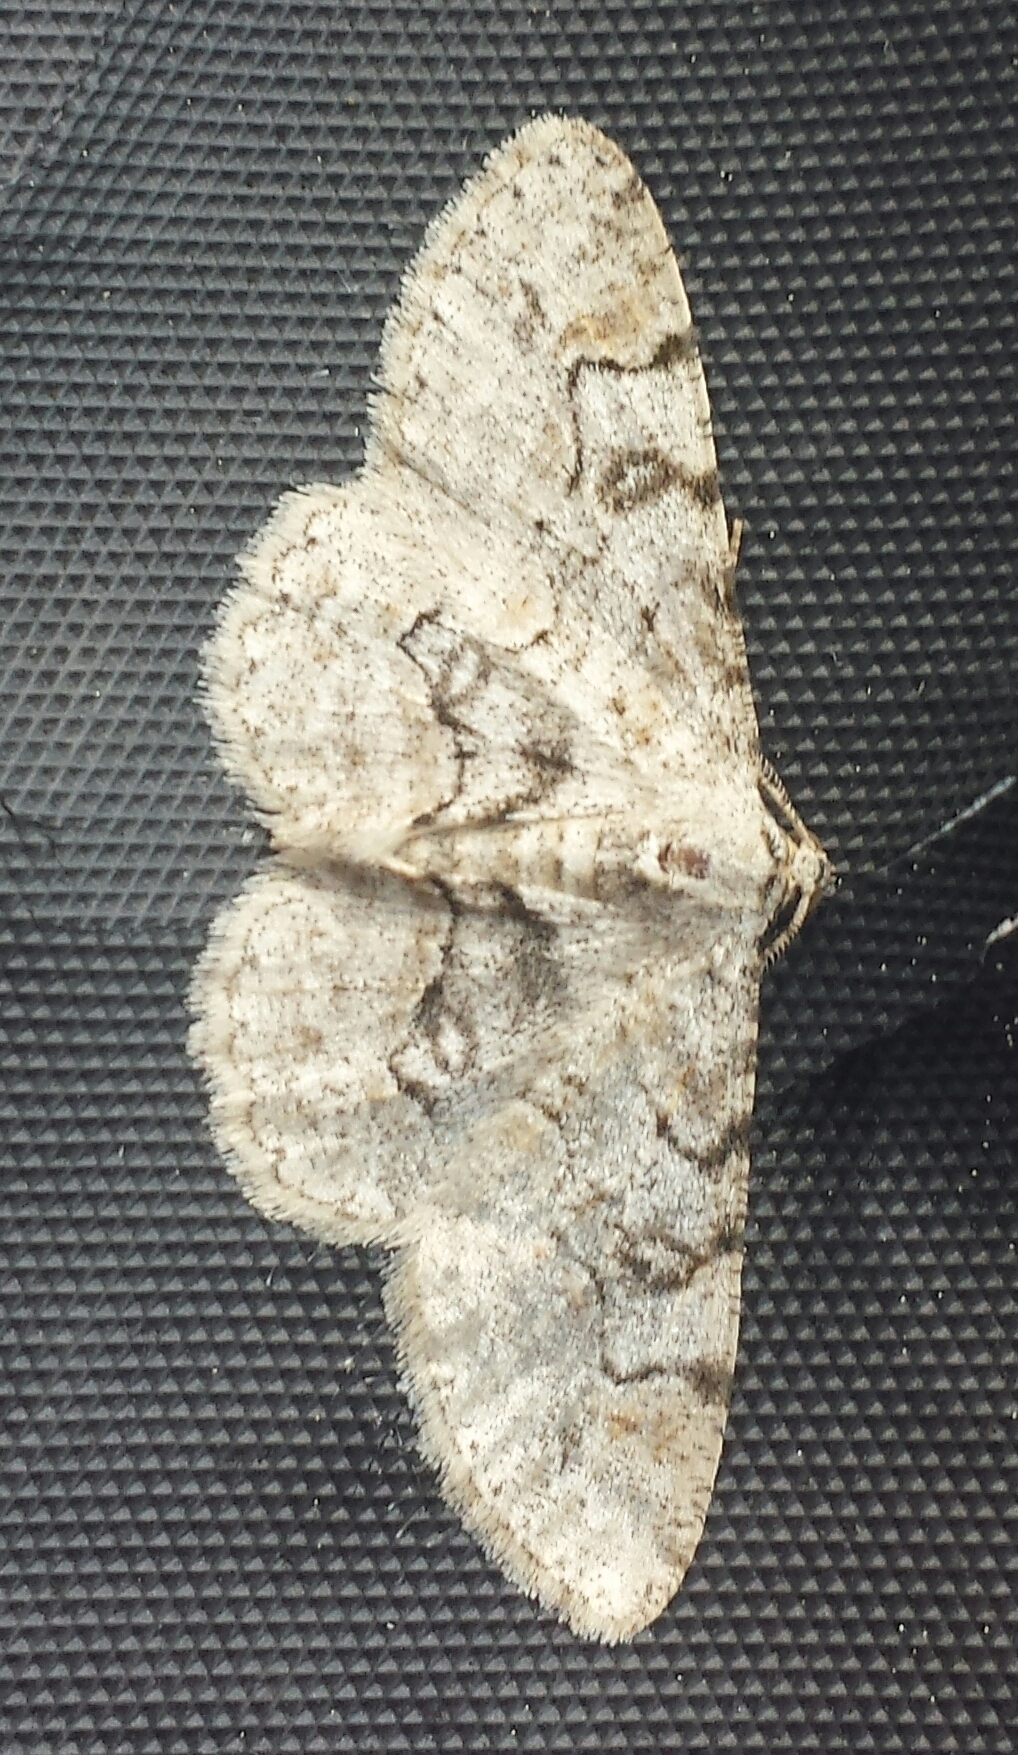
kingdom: Animalia
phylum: Arthropoda
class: Insecta
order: Lepidoptera
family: Geometridae
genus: Iridopsis
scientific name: Iridopsis larvaria
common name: Bent-line gray
